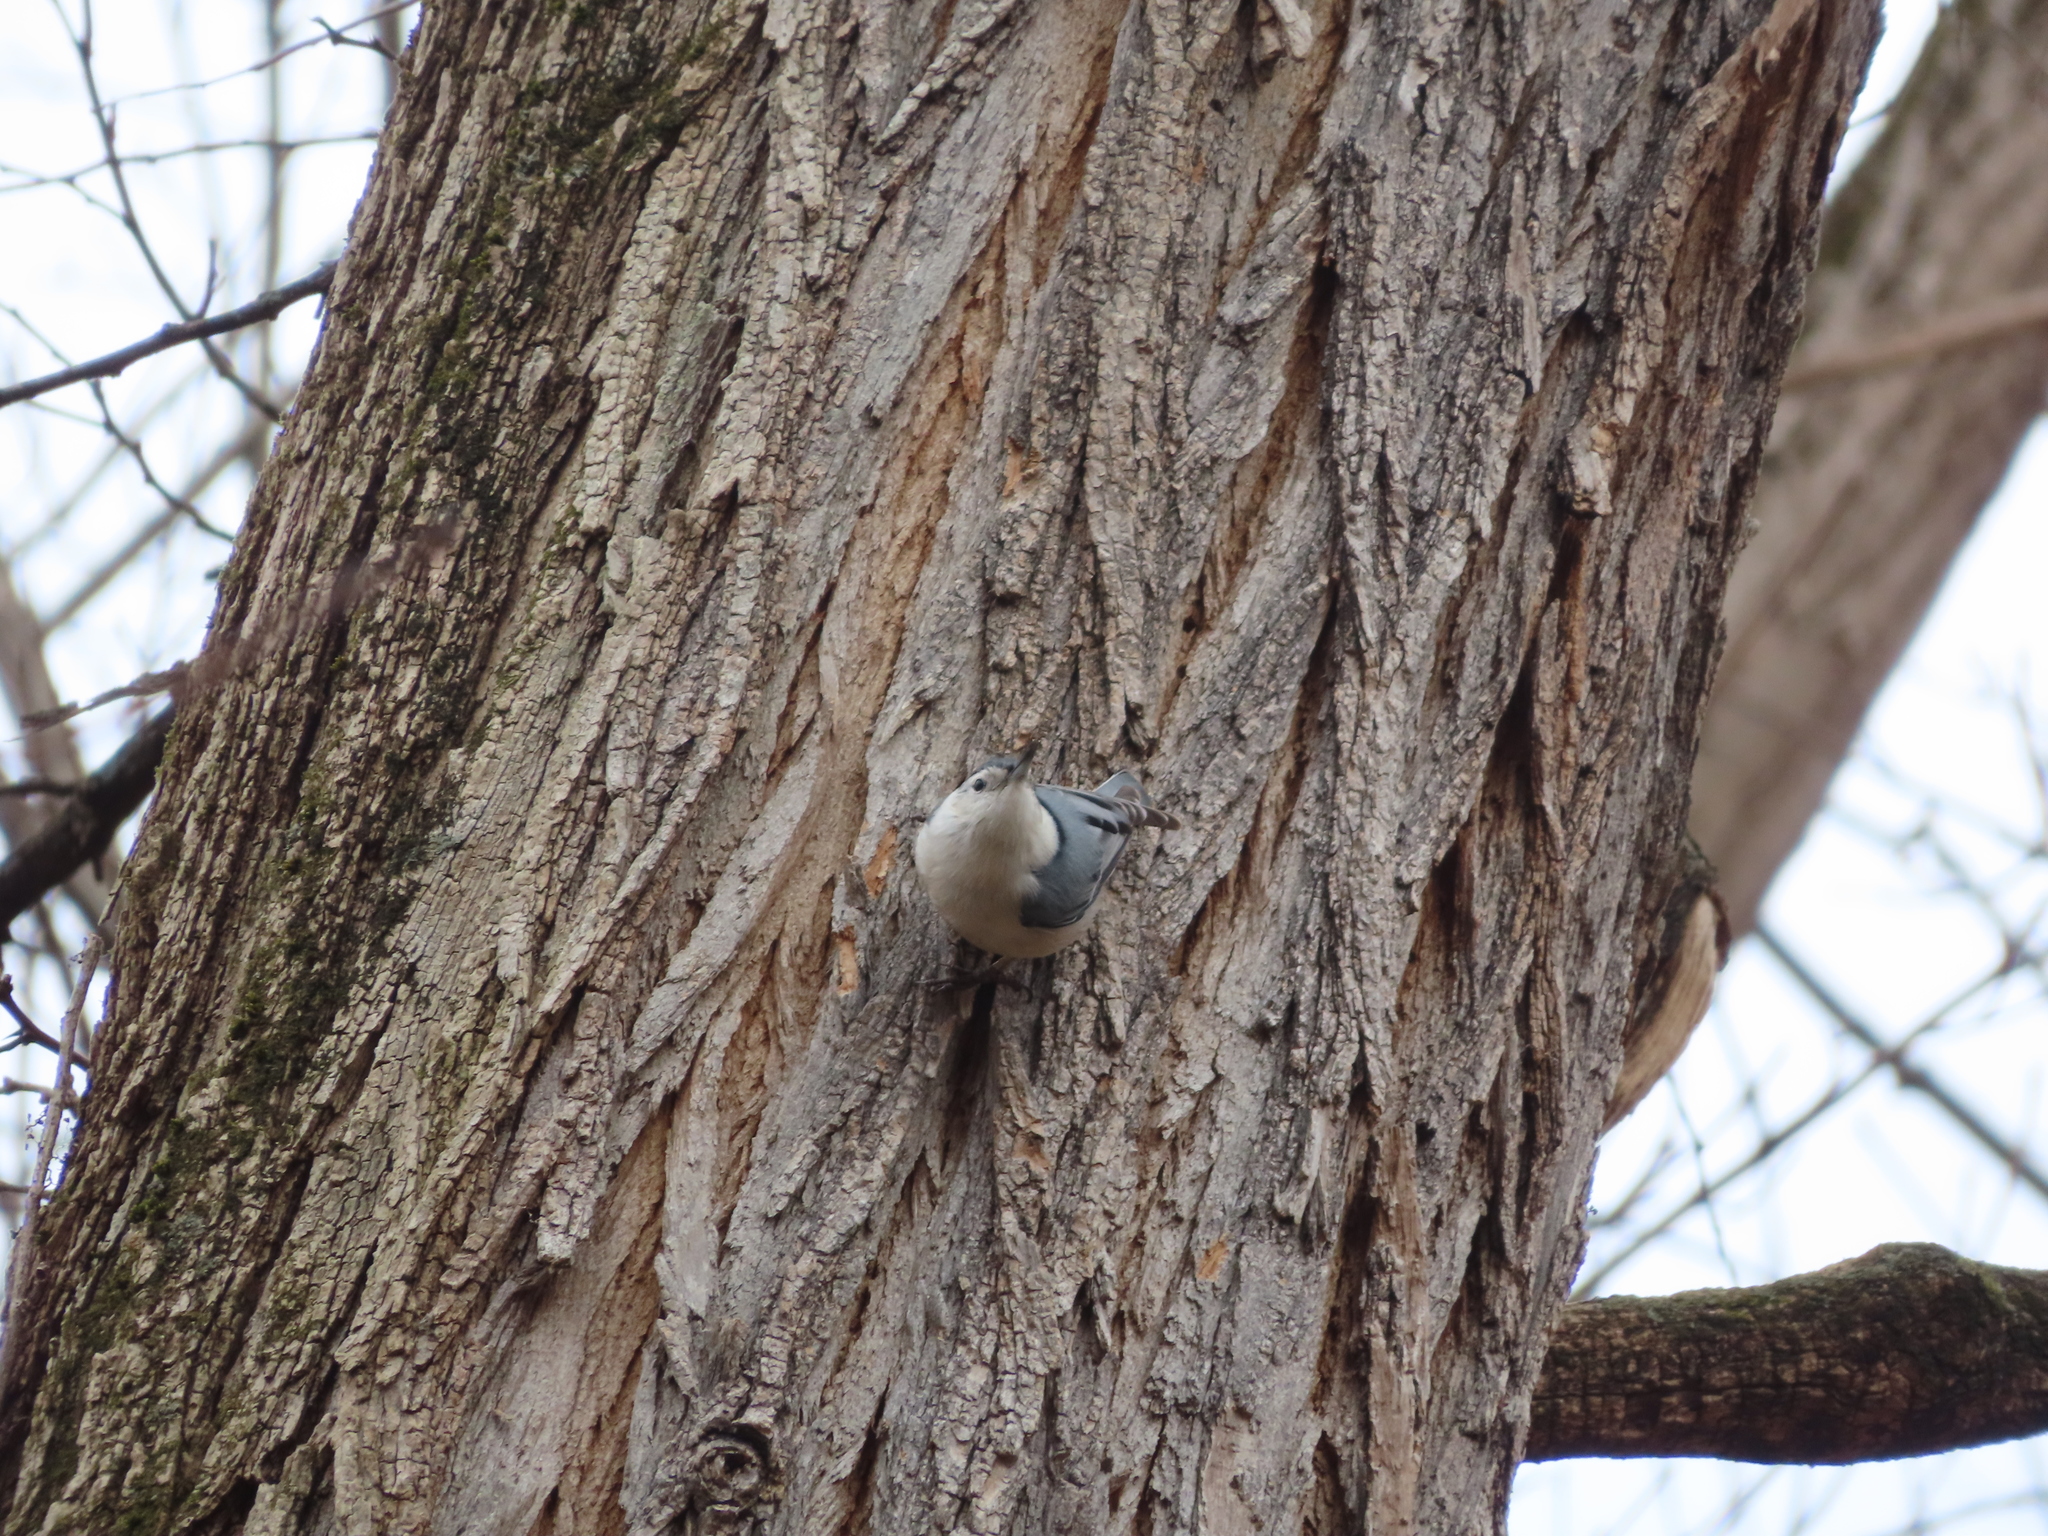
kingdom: Animalia
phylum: Chordata
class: Aves
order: Passeriformes
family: Sittidae
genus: Sitta
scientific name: Sitta carolinensis
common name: White-breasted nuthatch
